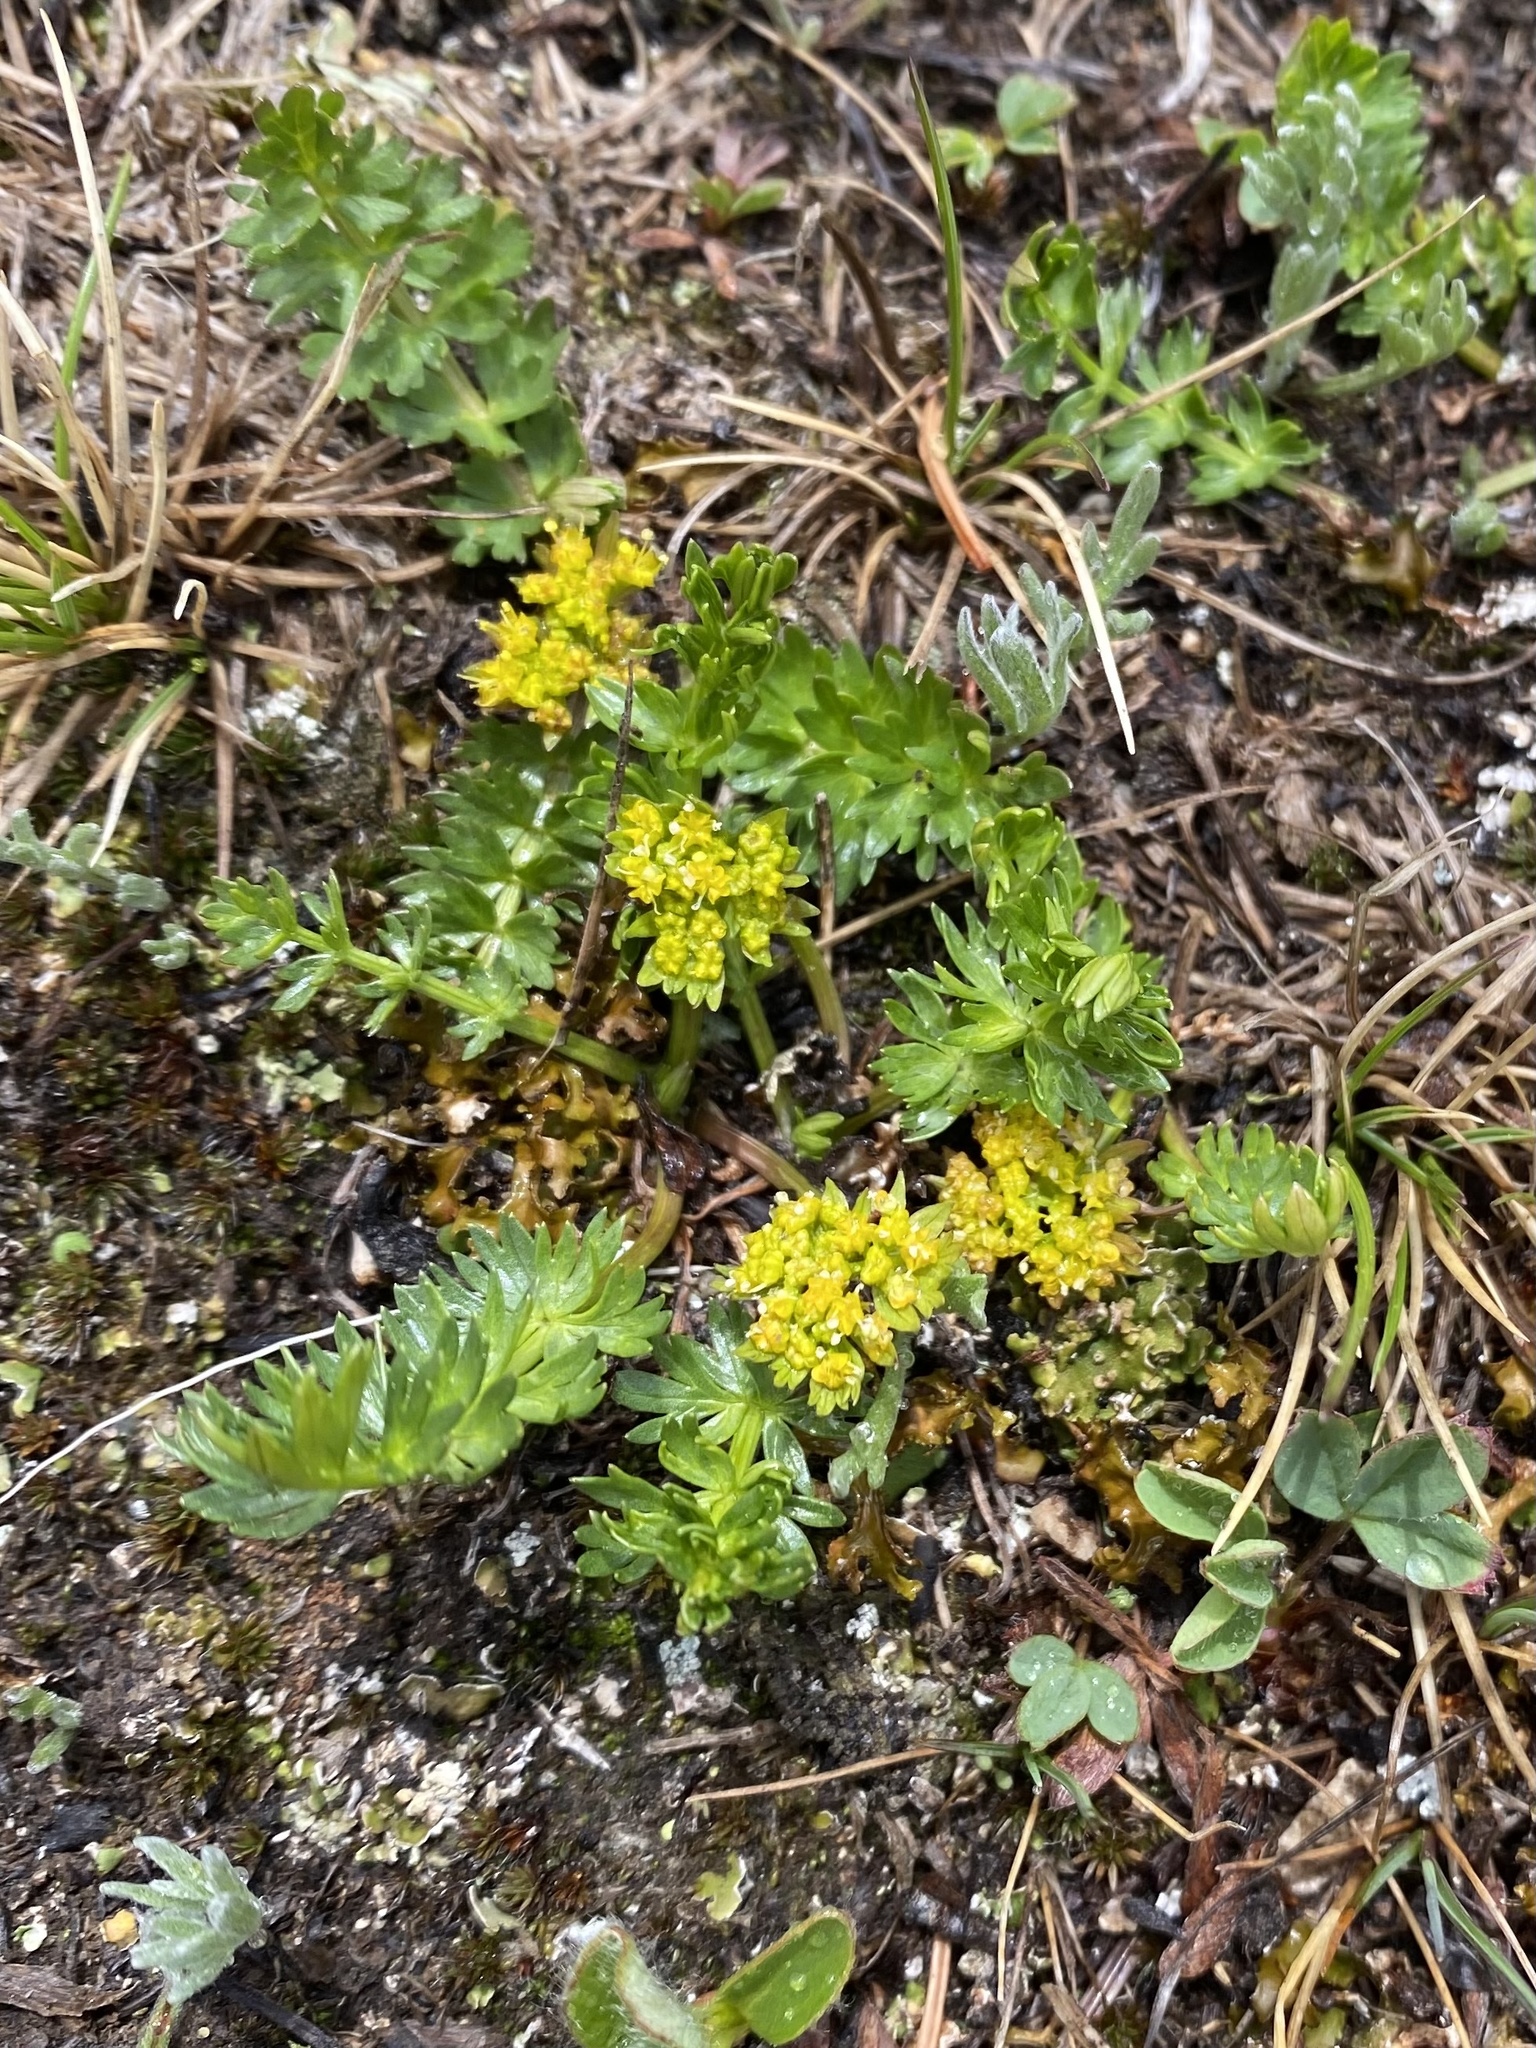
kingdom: Plantae
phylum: Tracheophyta
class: Magnoliopsida
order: Apiales
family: Apiaceae
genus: Cymopterus
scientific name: Cymopterus lemmonii
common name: Lemmon's spring-parsley
